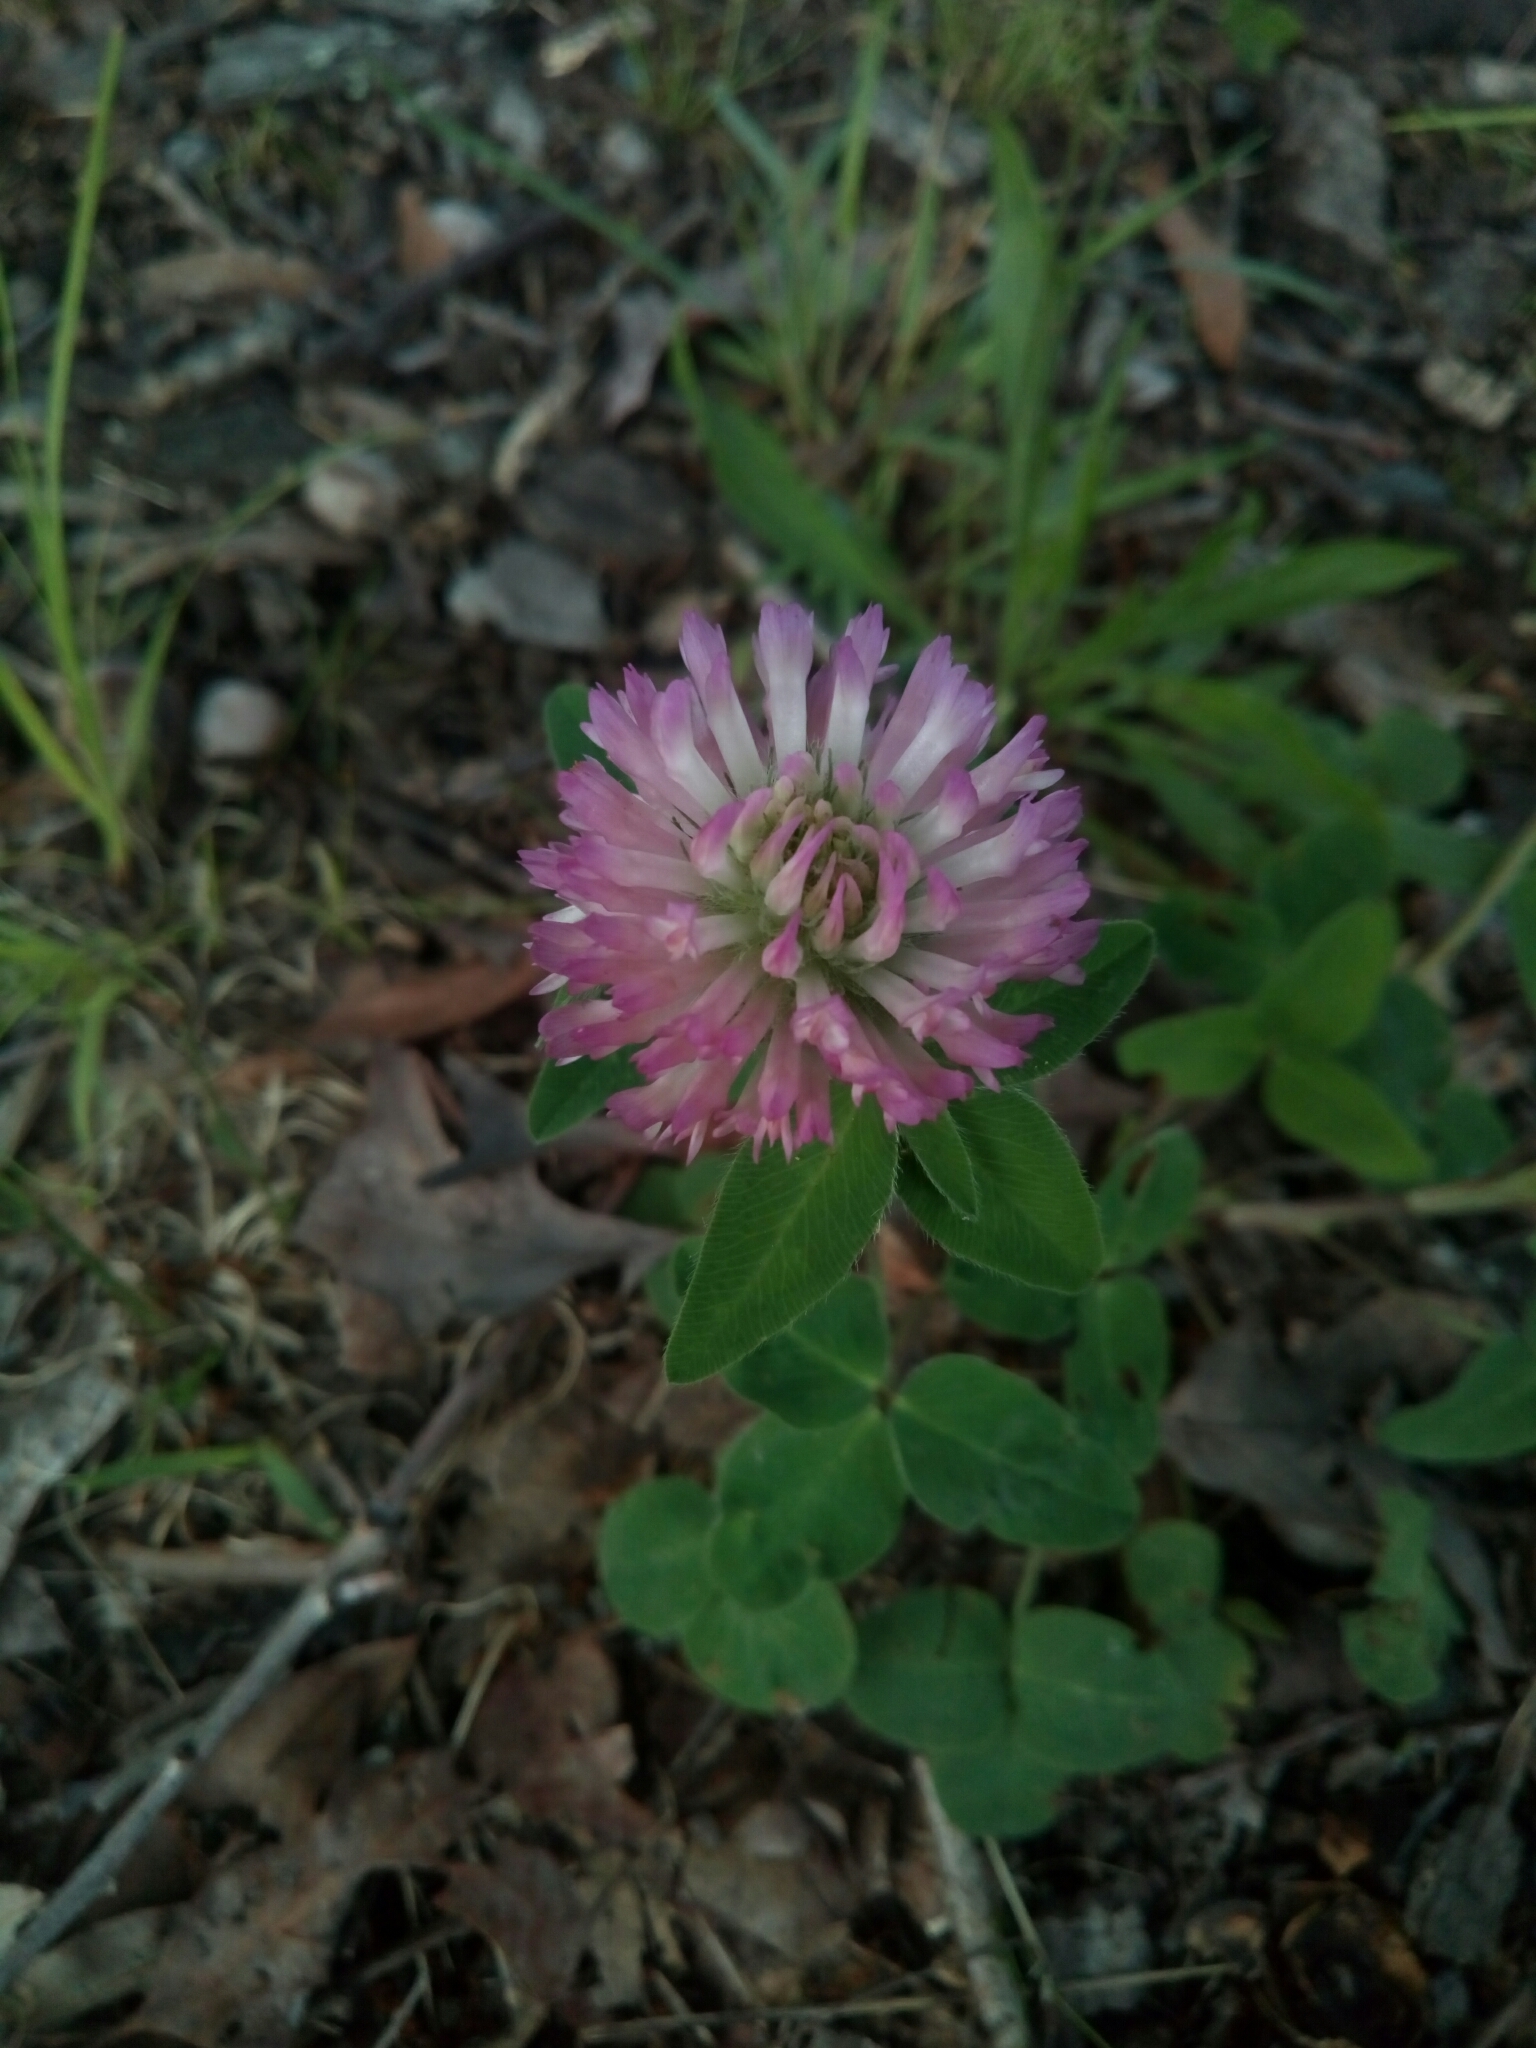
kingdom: Plantae
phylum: Tracheophyta
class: Magnoliopsida
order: Fabales
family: Fabaceae
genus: Trifolium
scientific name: Trifolium pratense
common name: Red clover
